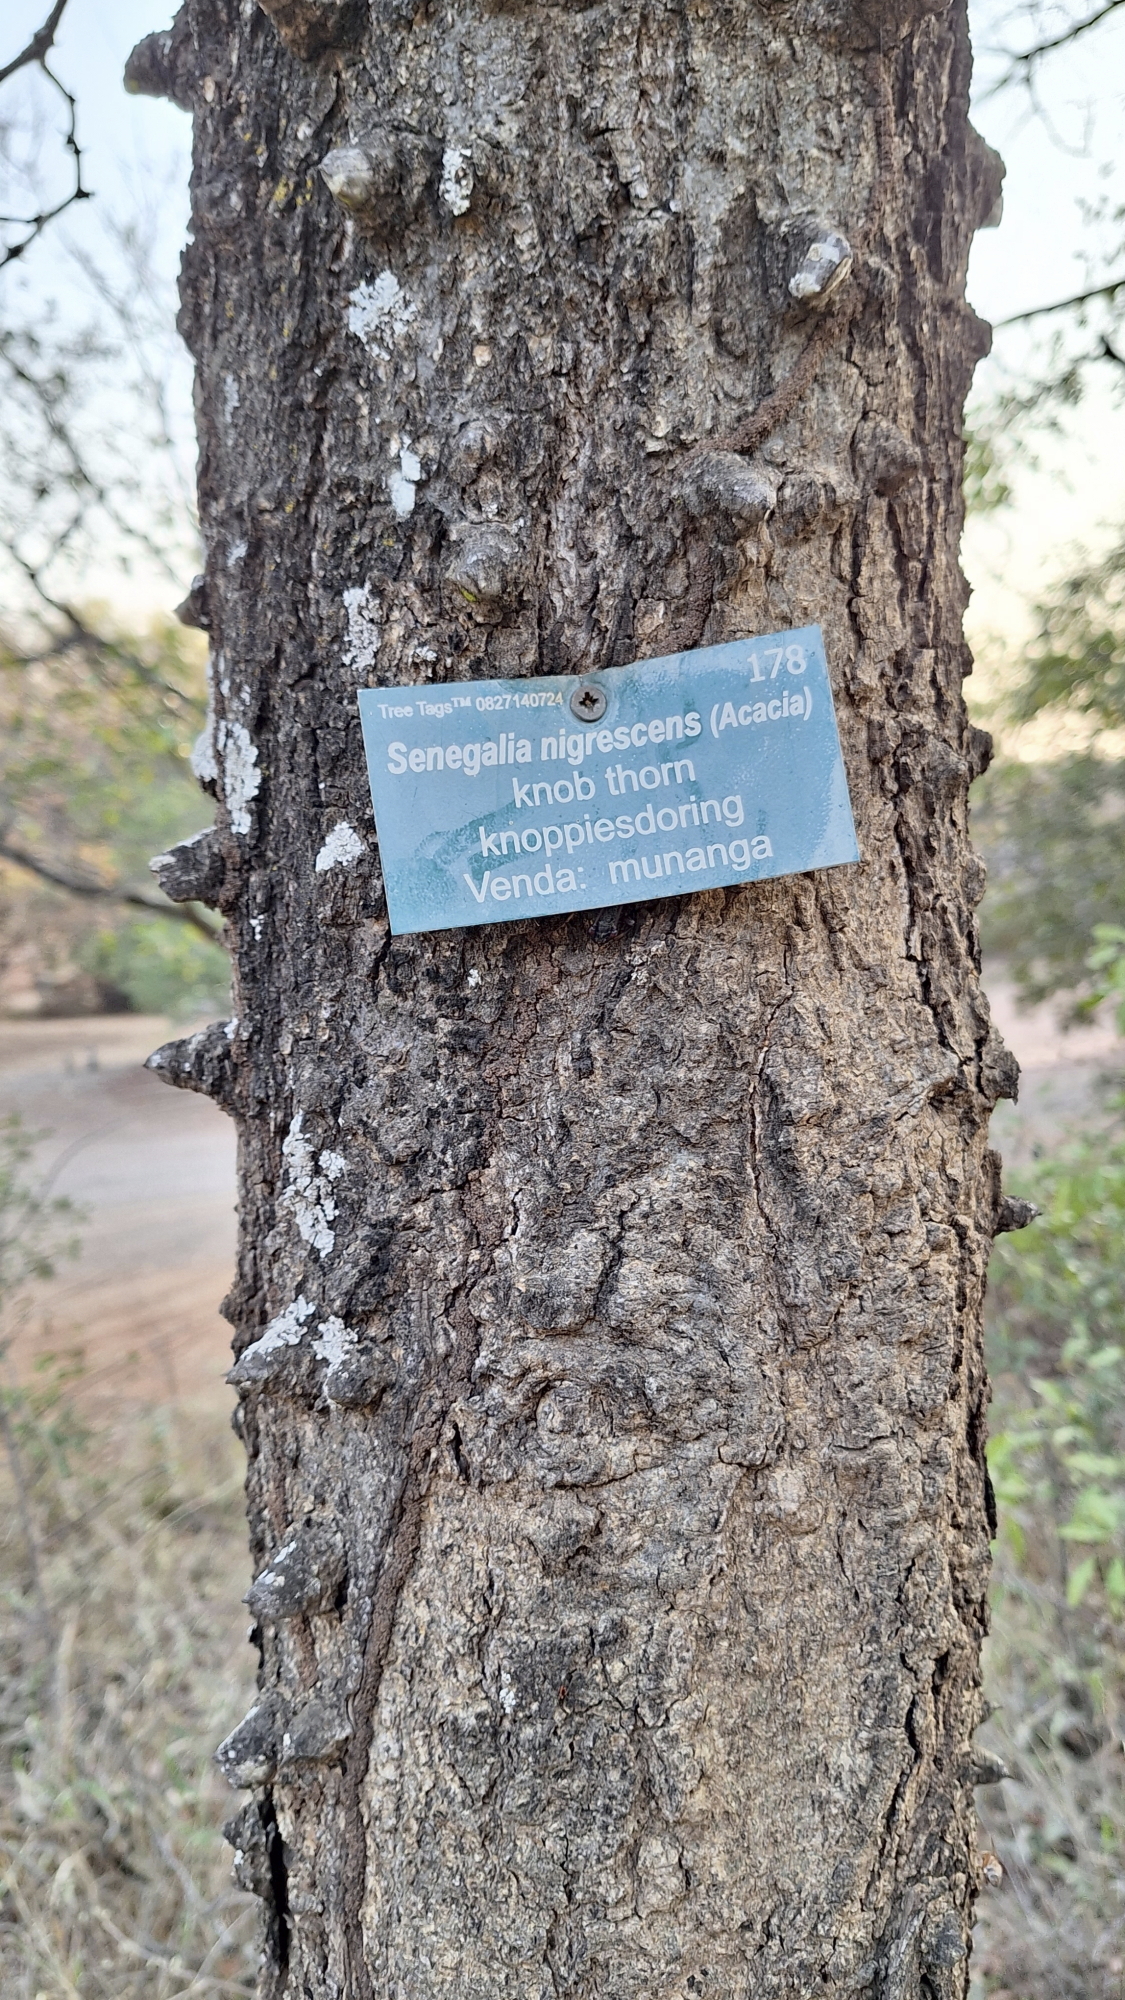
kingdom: Plantae
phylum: Tracheophyta
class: Magnoliopsida
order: Fabales
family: Fabaceae
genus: Senegalia
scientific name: Senegalia nigrescens
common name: Knobthorn
